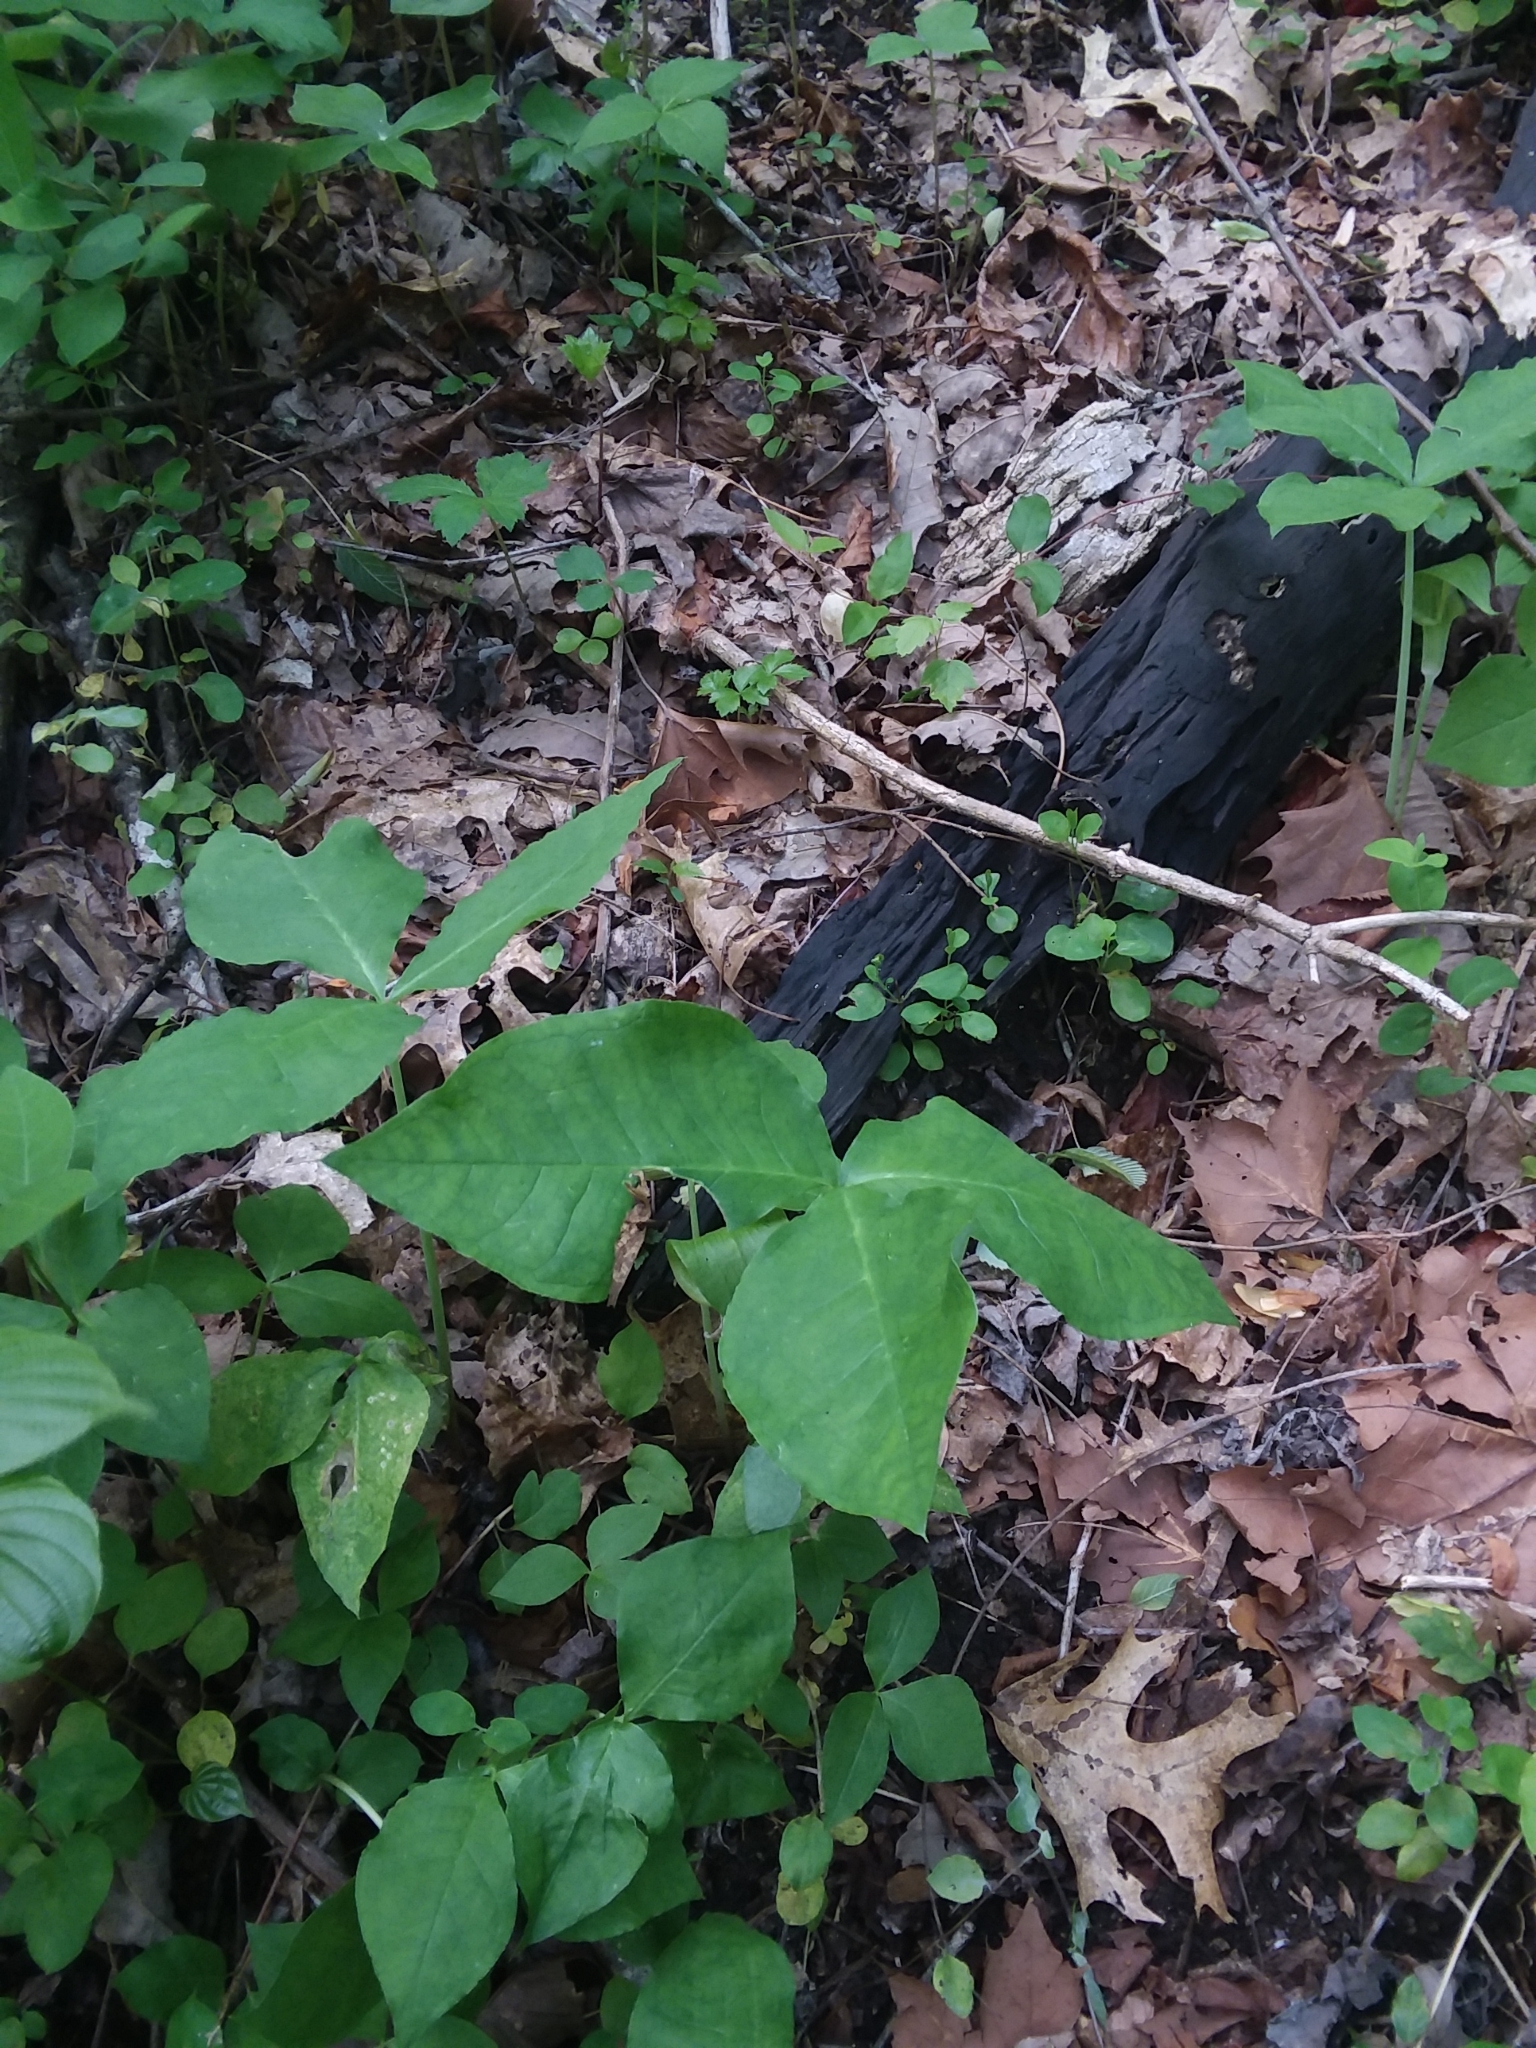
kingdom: Plantae
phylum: Tracheophyta
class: Liliopsida
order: Alismatales
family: Araceae
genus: Arisaema
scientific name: Arisaema triphyllum
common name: Jack-in-the-pulpit
